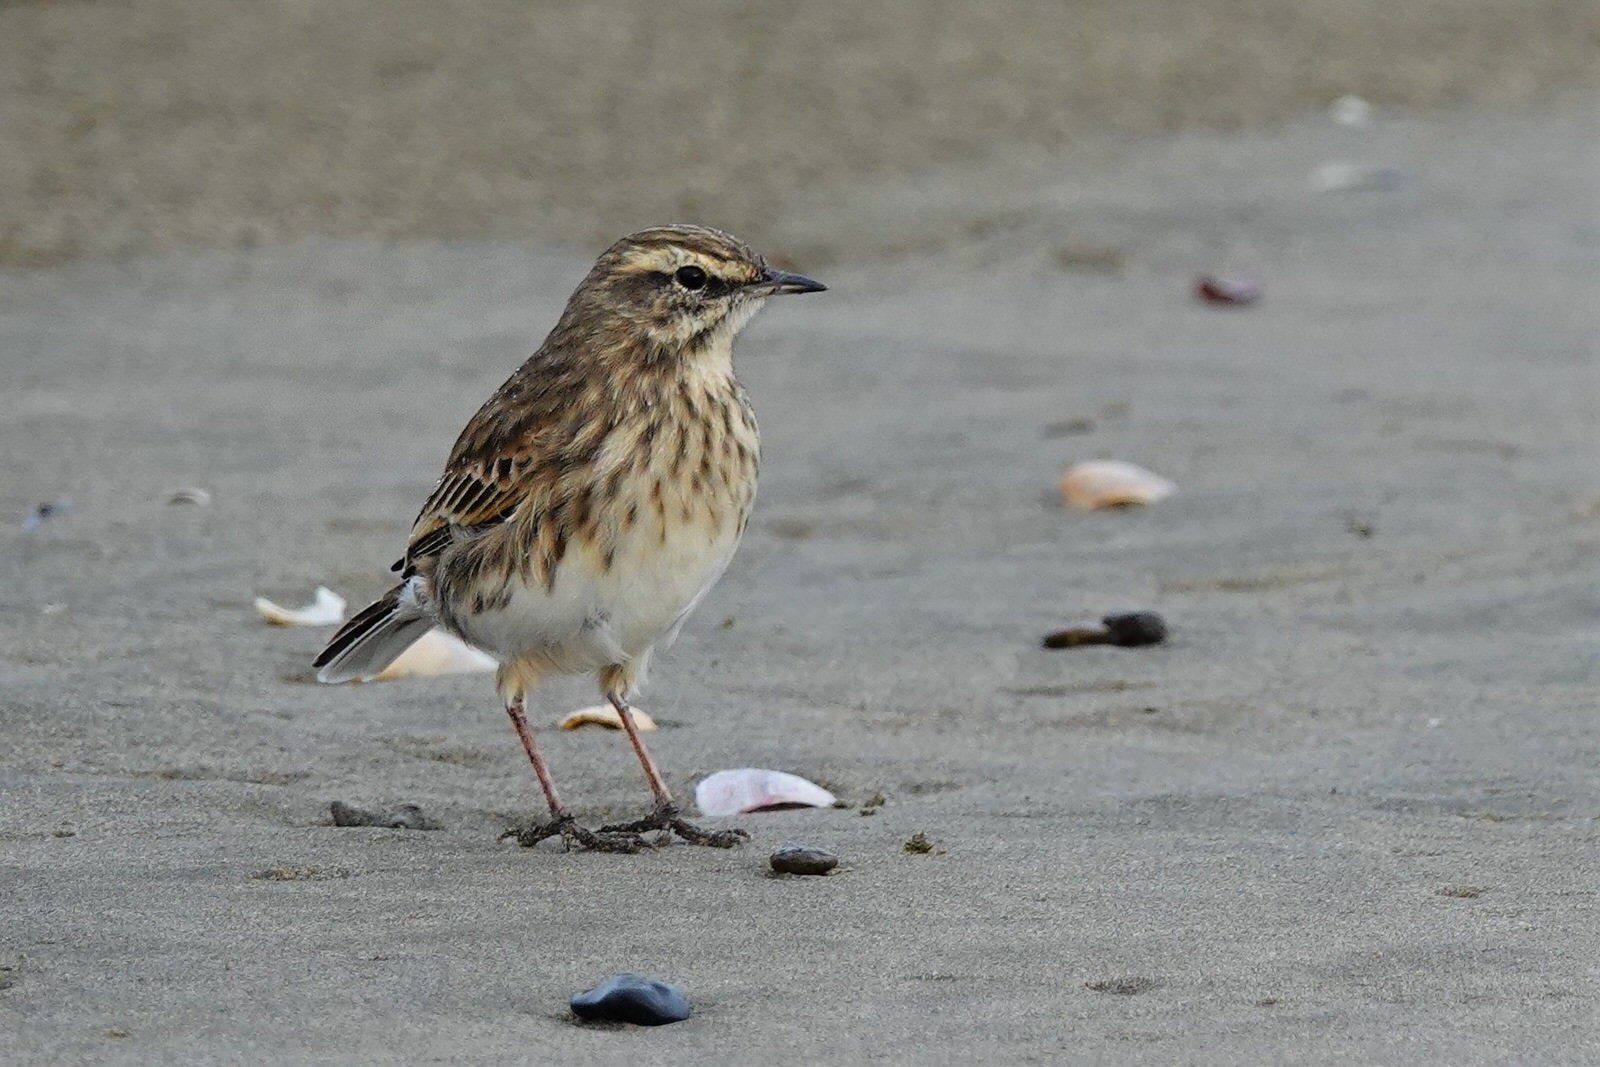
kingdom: Animalia
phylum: Chordata
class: Aves
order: Passeriformes
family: Motacillidae
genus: Anthus
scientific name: Anthus novaeseelandiae
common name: New zealand pipit
